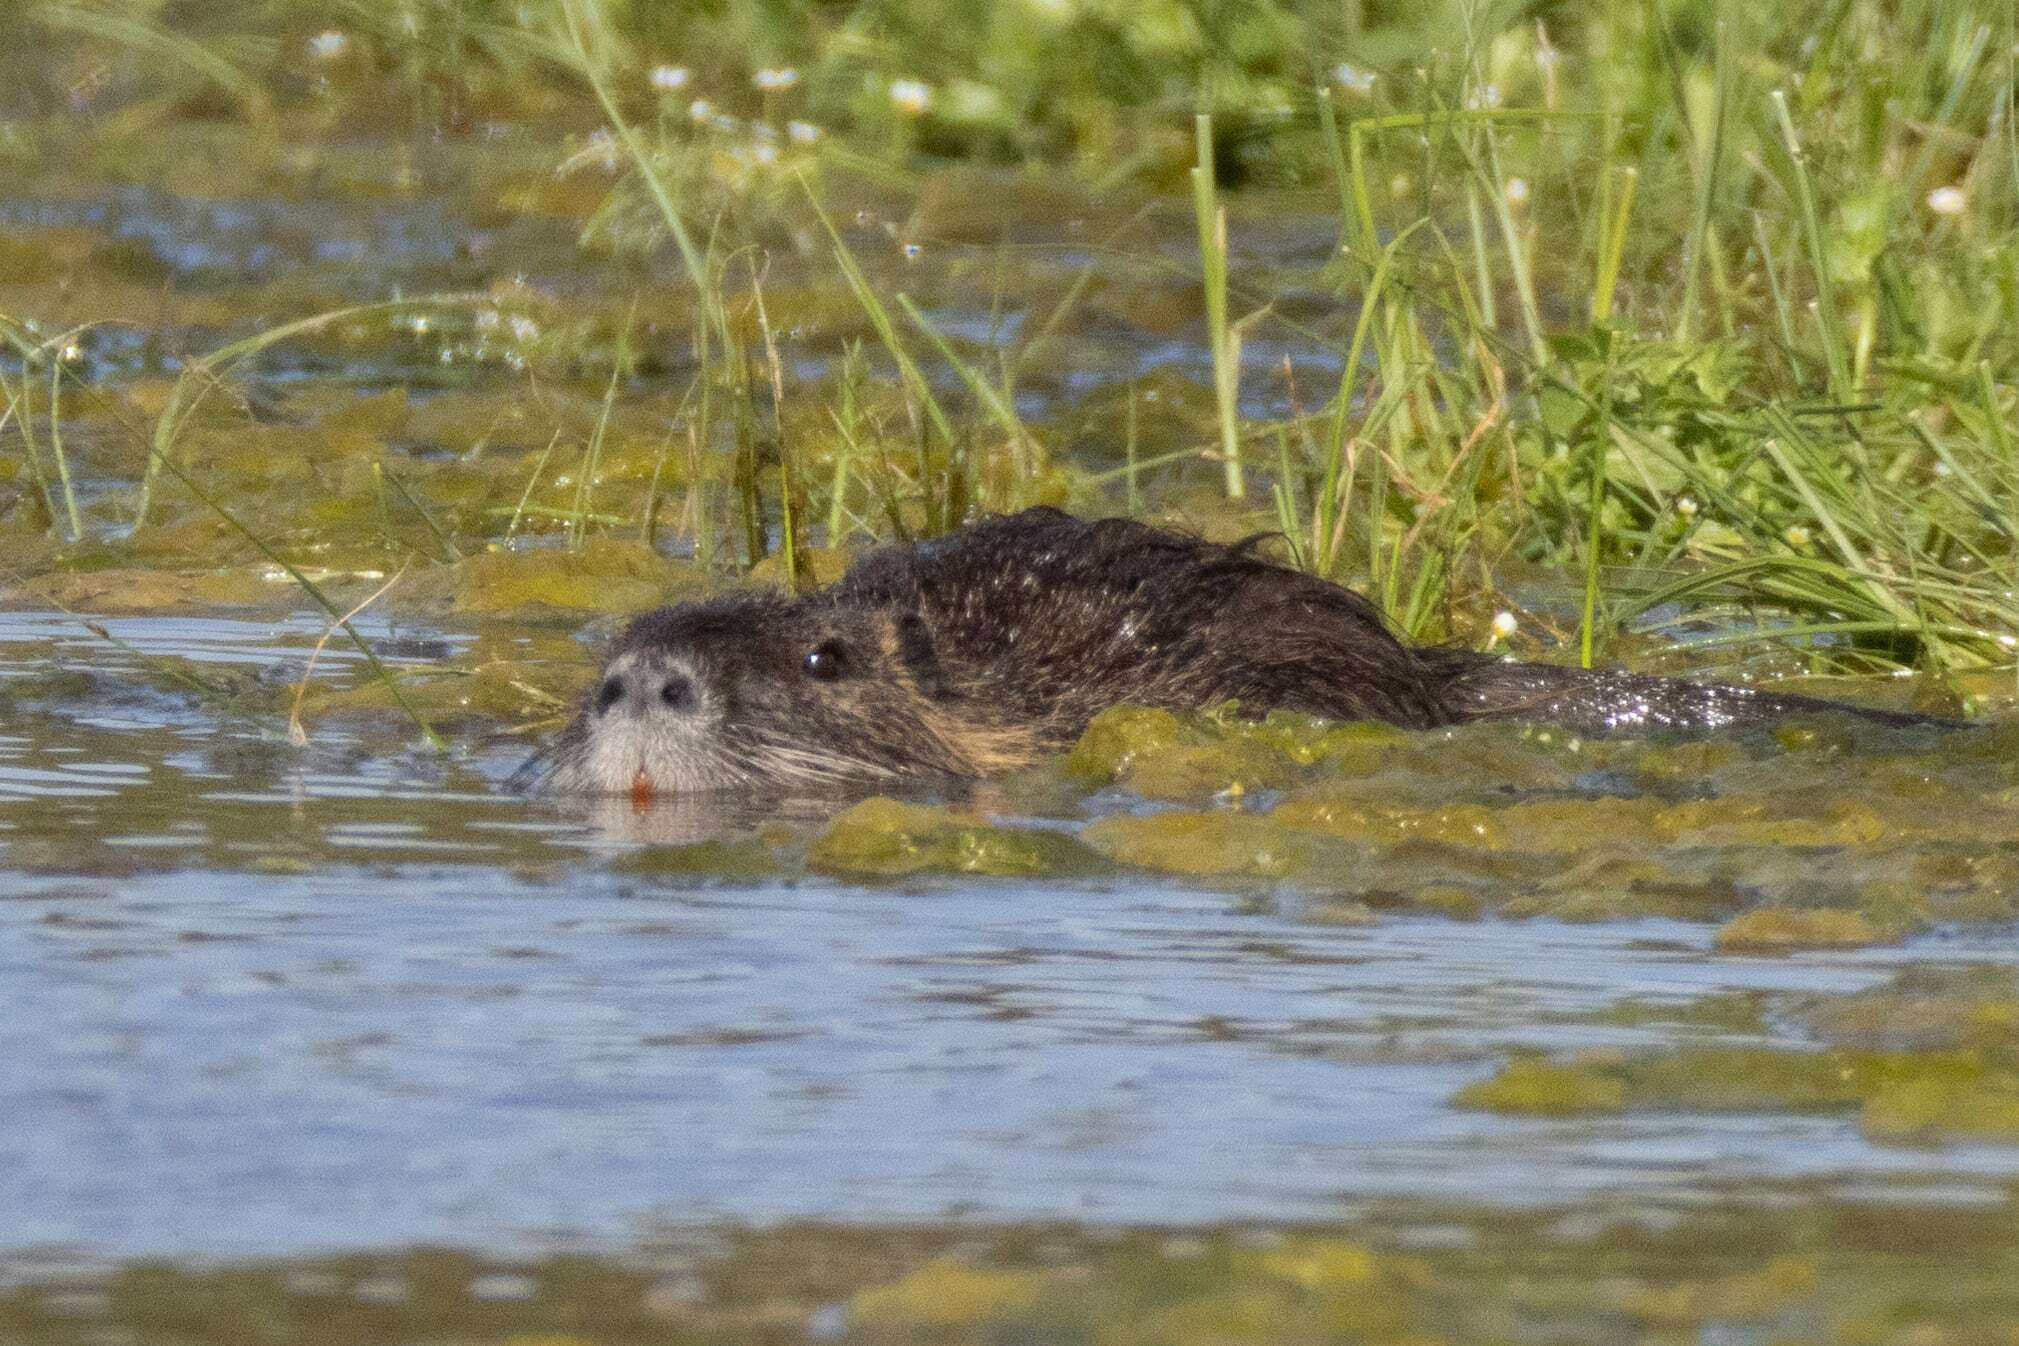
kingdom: Animalia
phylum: Chordata
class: Mammalia
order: Rodentia
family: Myocastoridae
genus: Myocastor
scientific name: Myocastor coypus
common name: Coypu
